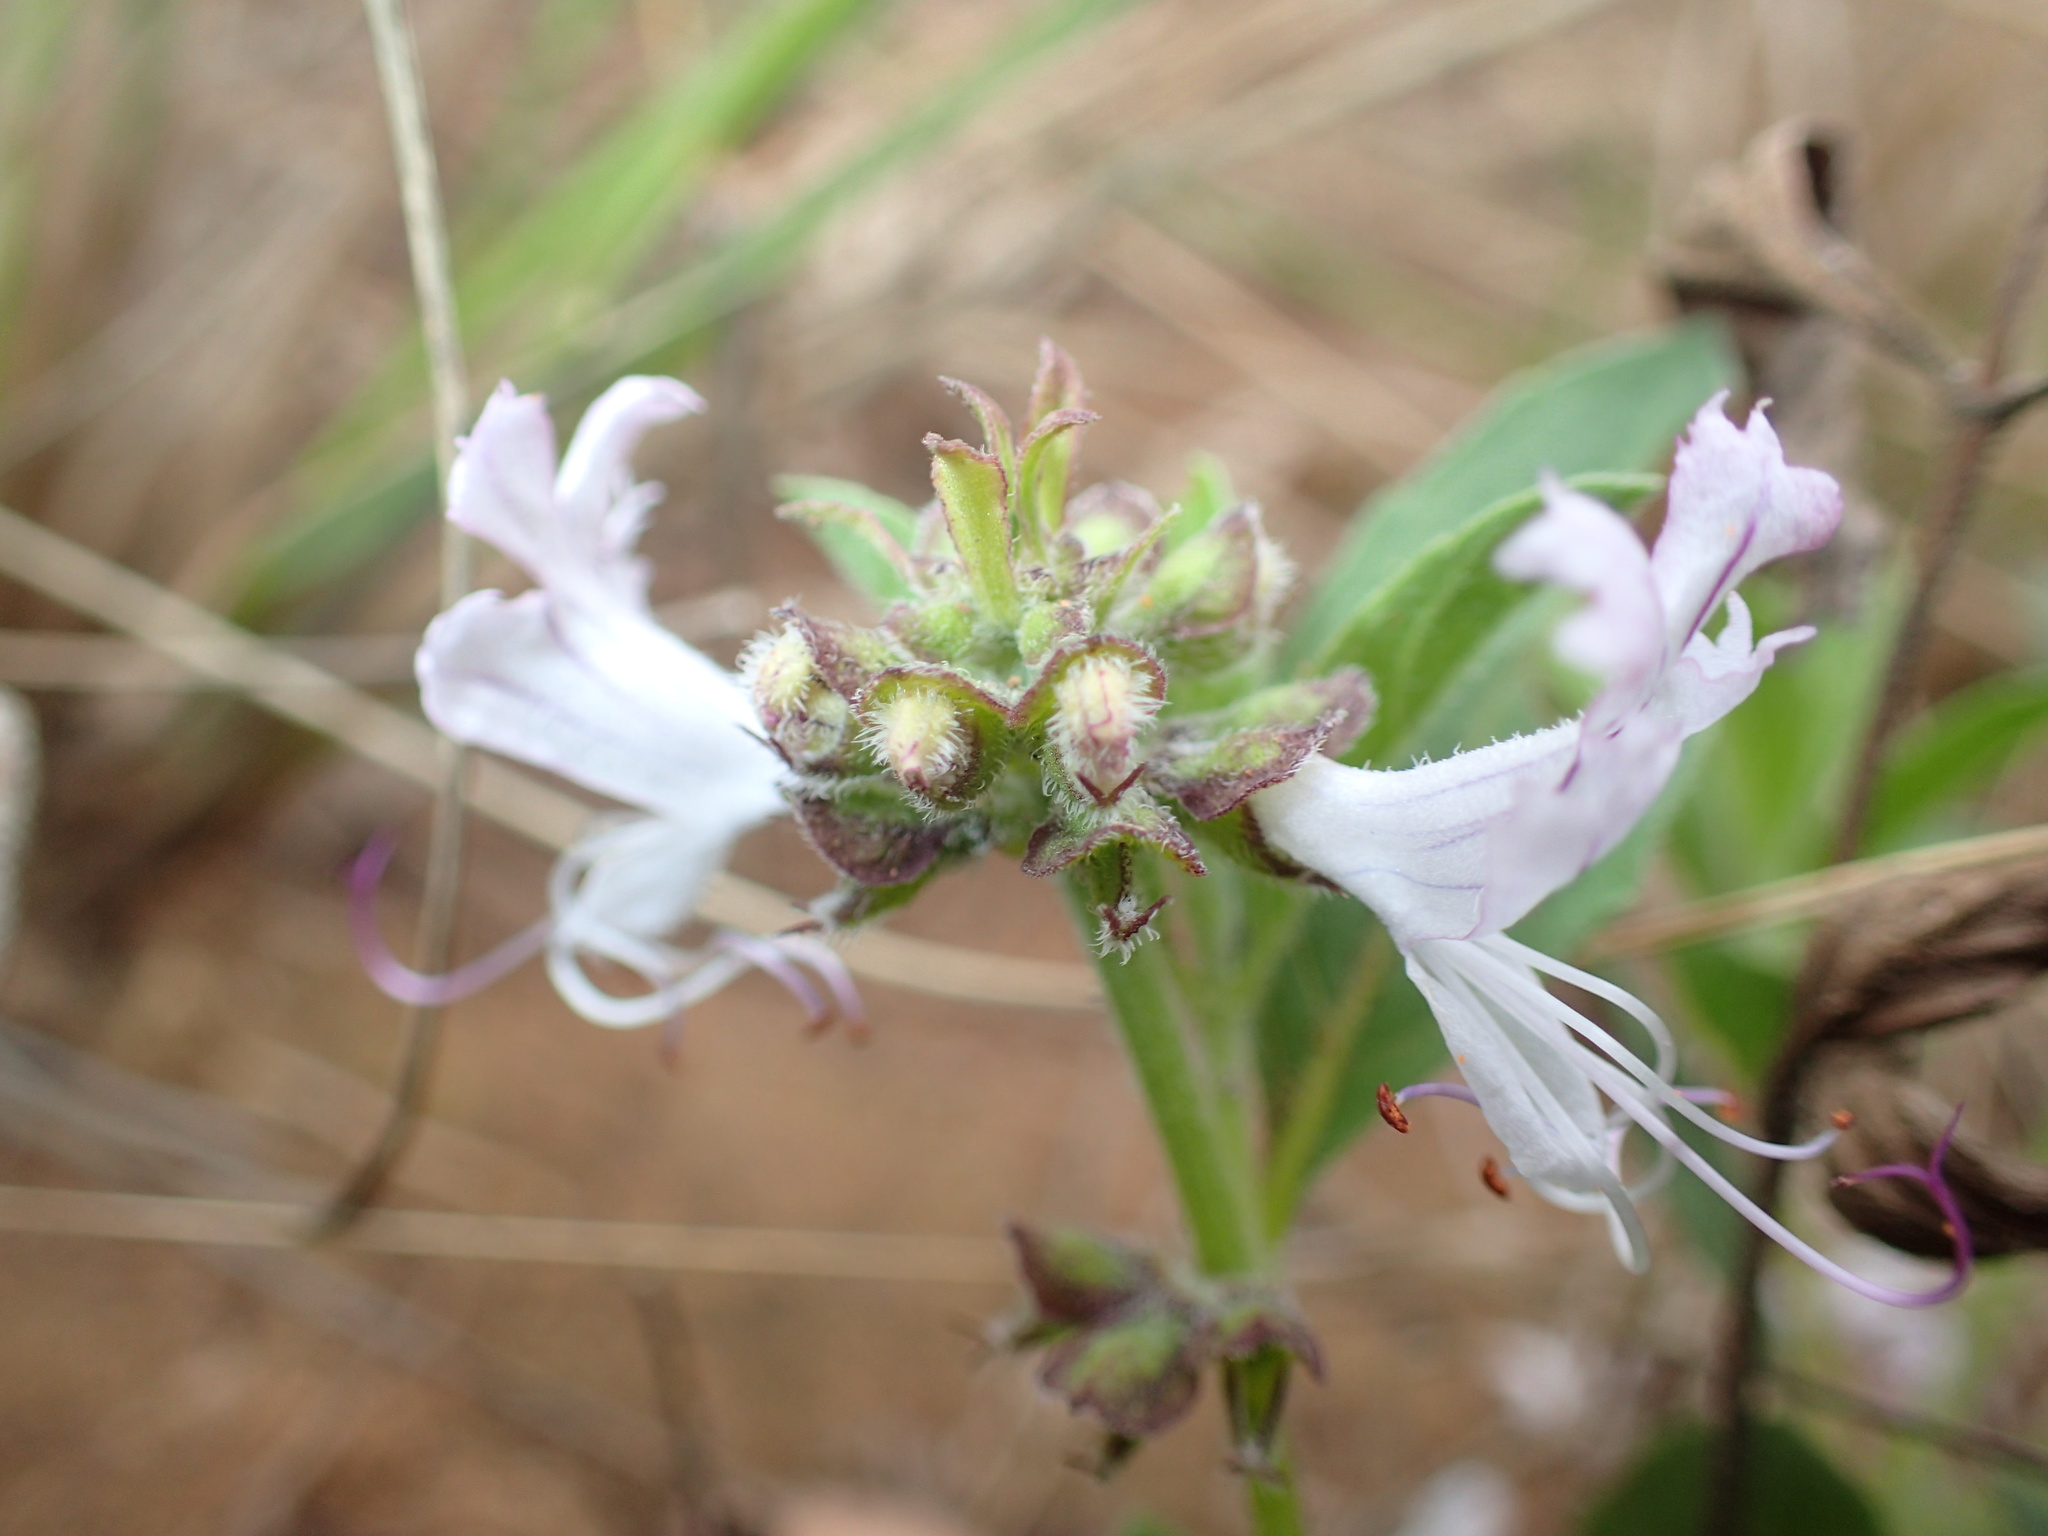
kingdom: Plantae
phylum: Tracheophyta
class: Magnoliopsida
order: Lamiales
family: Lamiaceae
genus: Ocimum
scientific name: Ocimum obovatum
